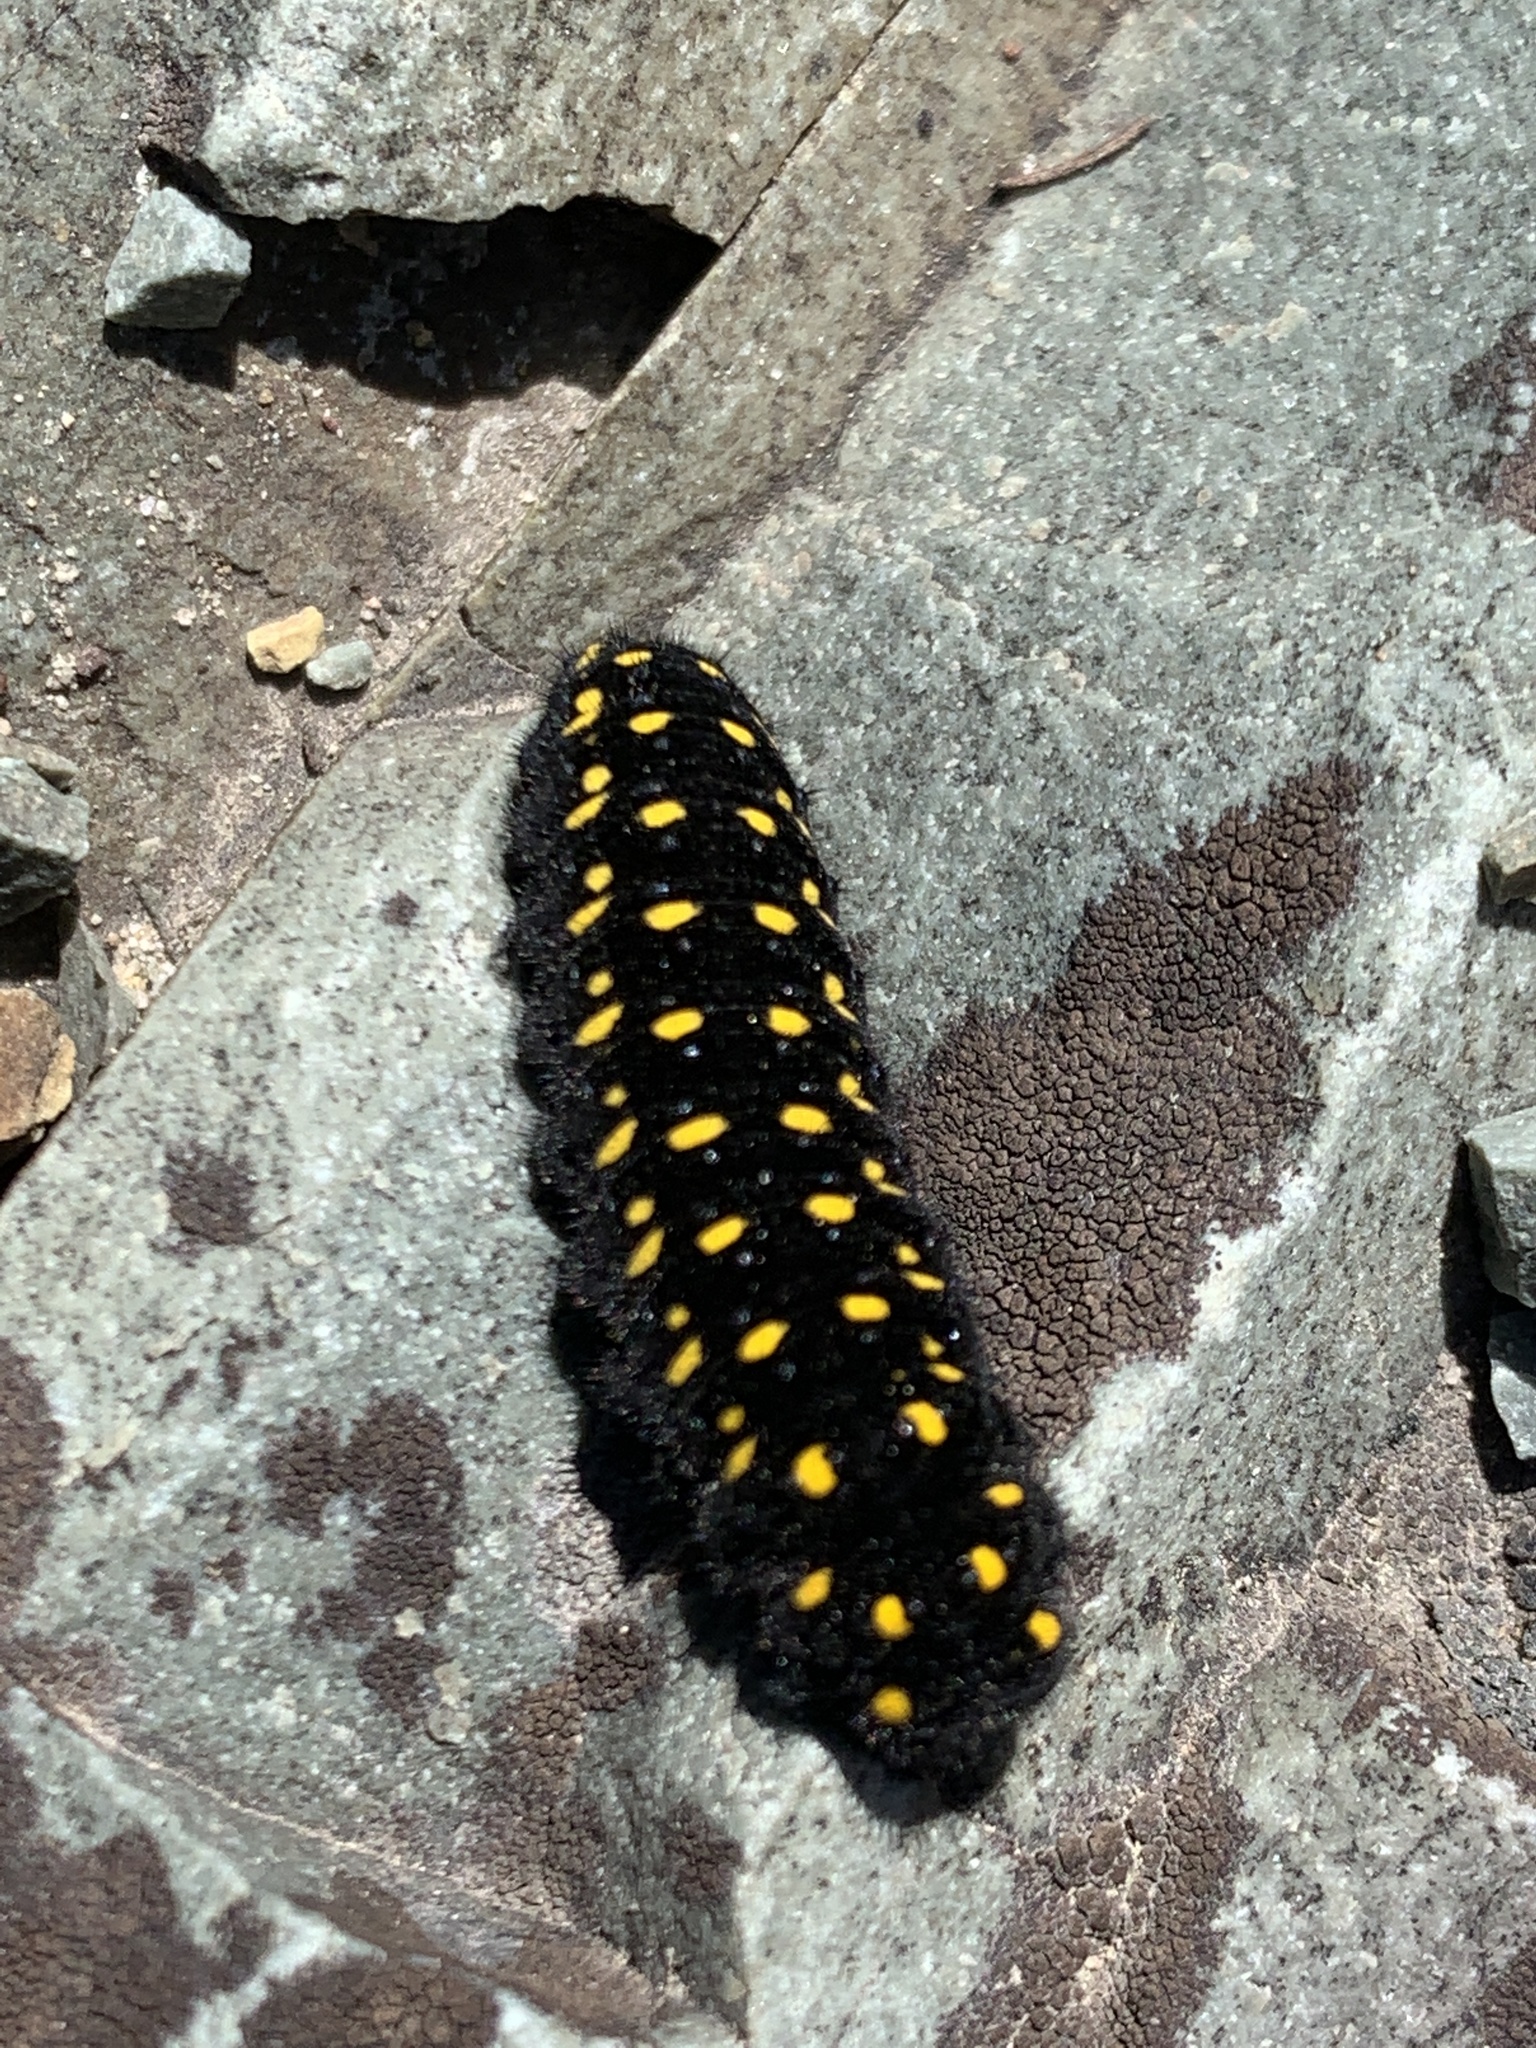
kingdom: Animalia
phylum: Arthropoda
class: Insecta
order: Lepidoptera
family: Papilionidae
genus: Parnassius
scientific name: Parnassius smintheus
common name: Mountain parnassian
